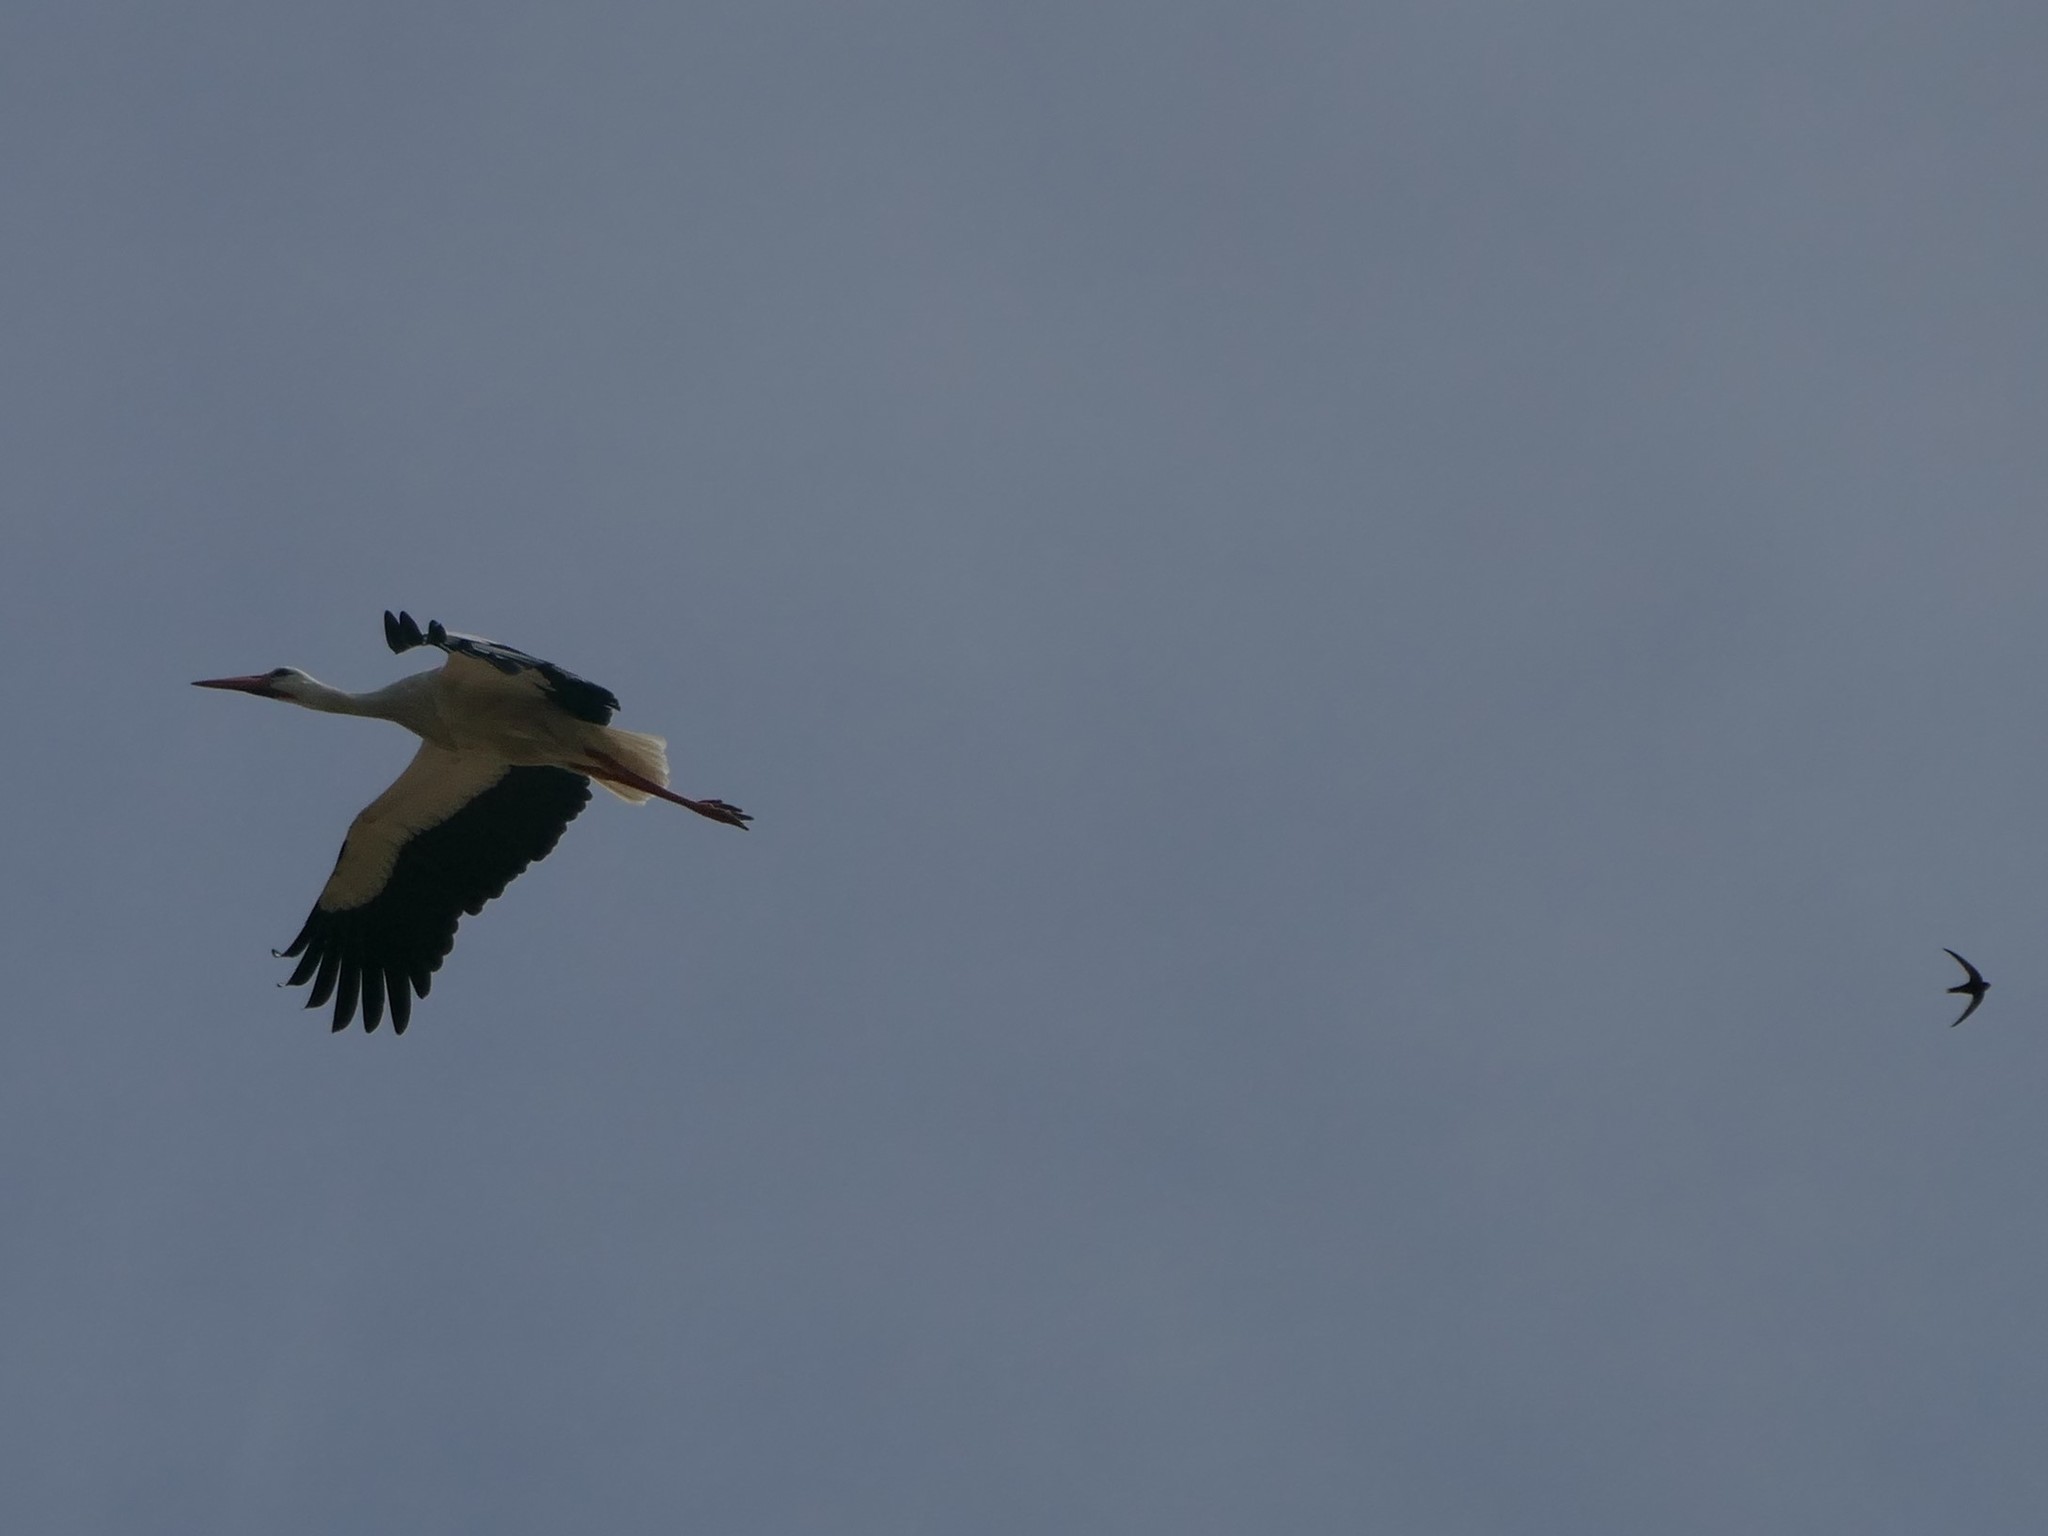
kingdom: Animalia
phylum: Chordata
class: Aves
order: Ciconiiformes
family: Ciconiidae
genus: Ciconia
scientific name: Ciconia ciconia
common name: White stork
